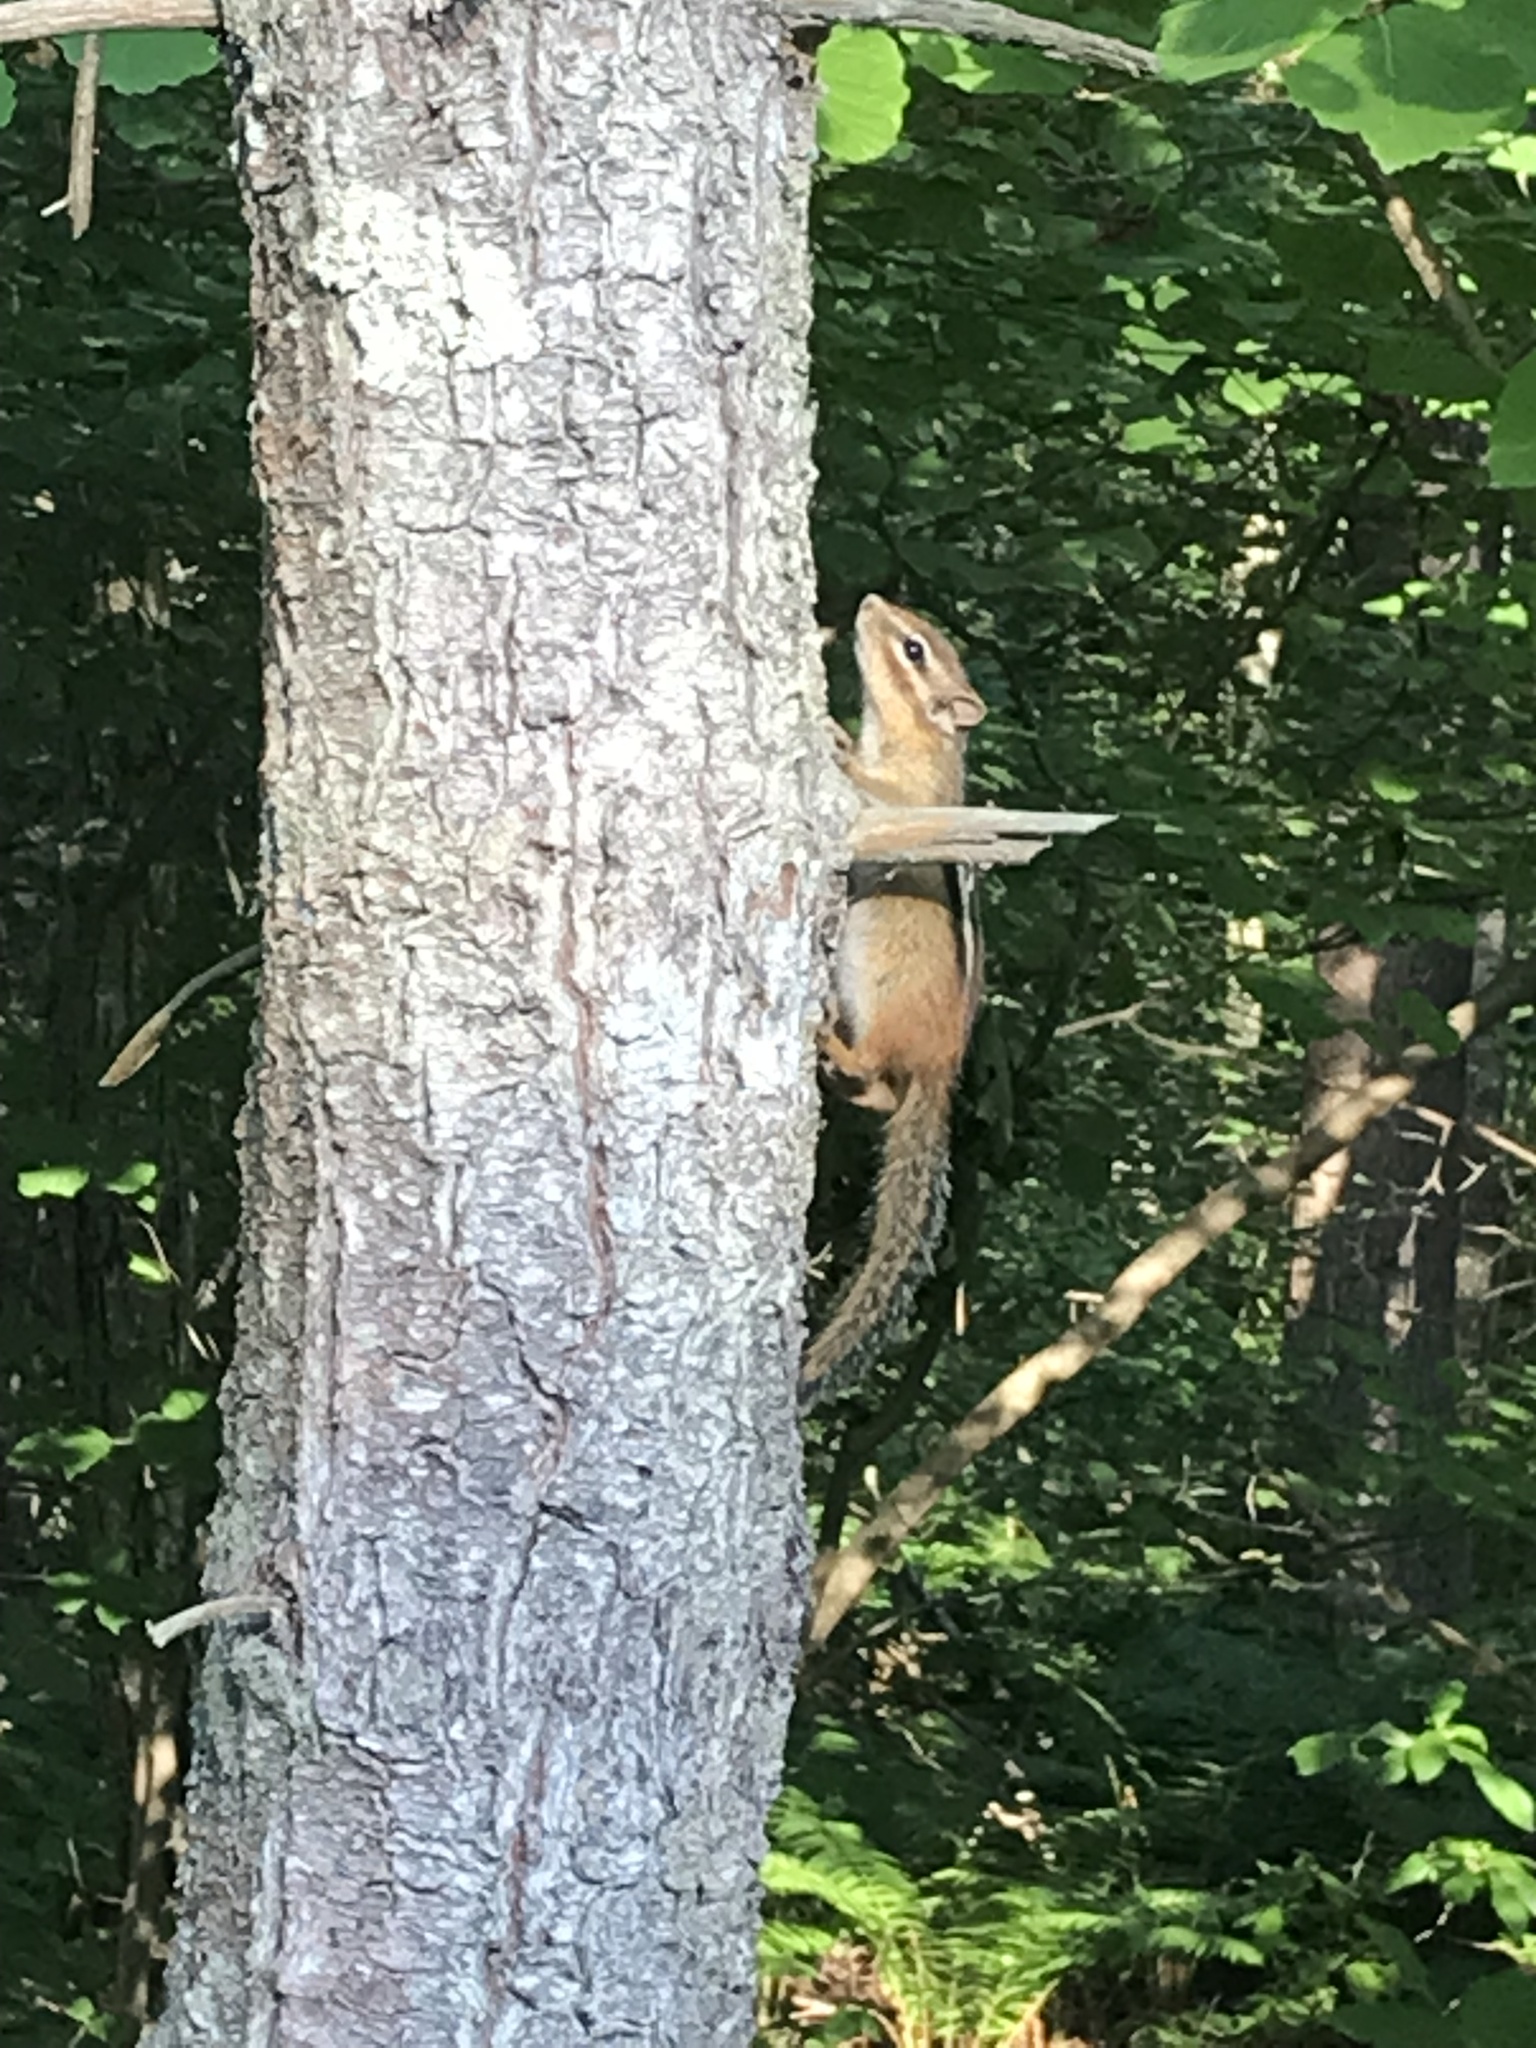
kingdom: Animalia
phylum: Chordata
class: Mammalia
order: Rodentia
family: Sciuridae
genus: Tamias
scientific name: Tamias striatus
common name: Eastern chipmunk
